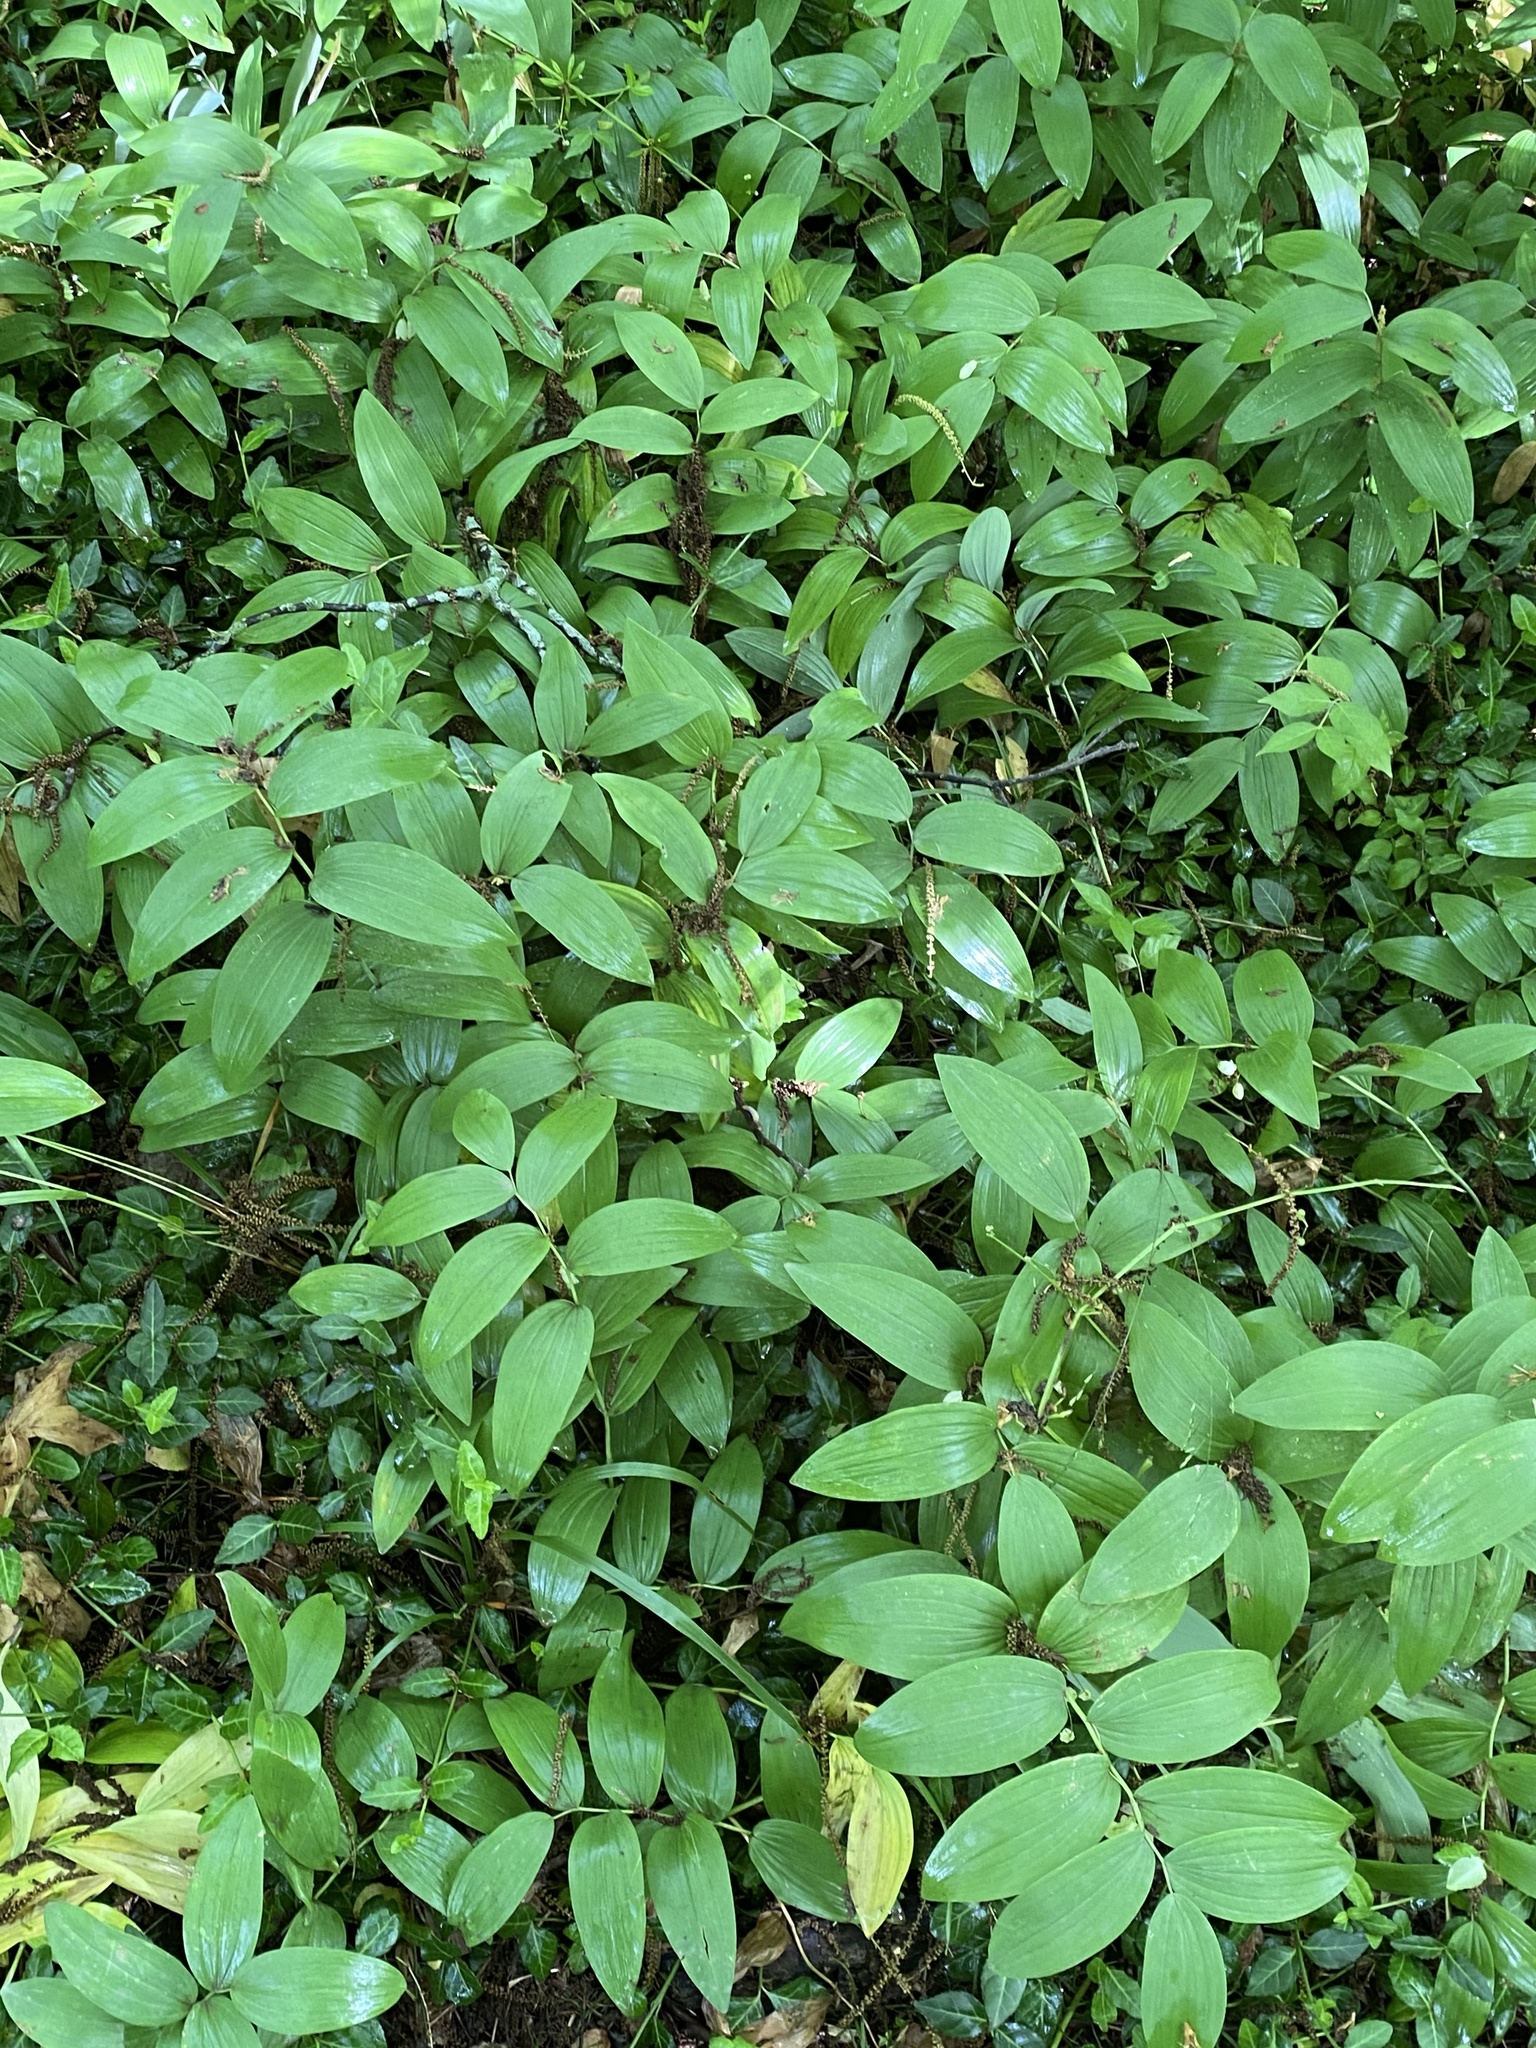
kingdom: Plantae
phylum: Tracheophyta
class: Liliopsida
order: Asparagales
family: Asparagaceae
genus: Polygonatum
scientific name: Polygonatum biflorum
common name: American solomon's-seal
